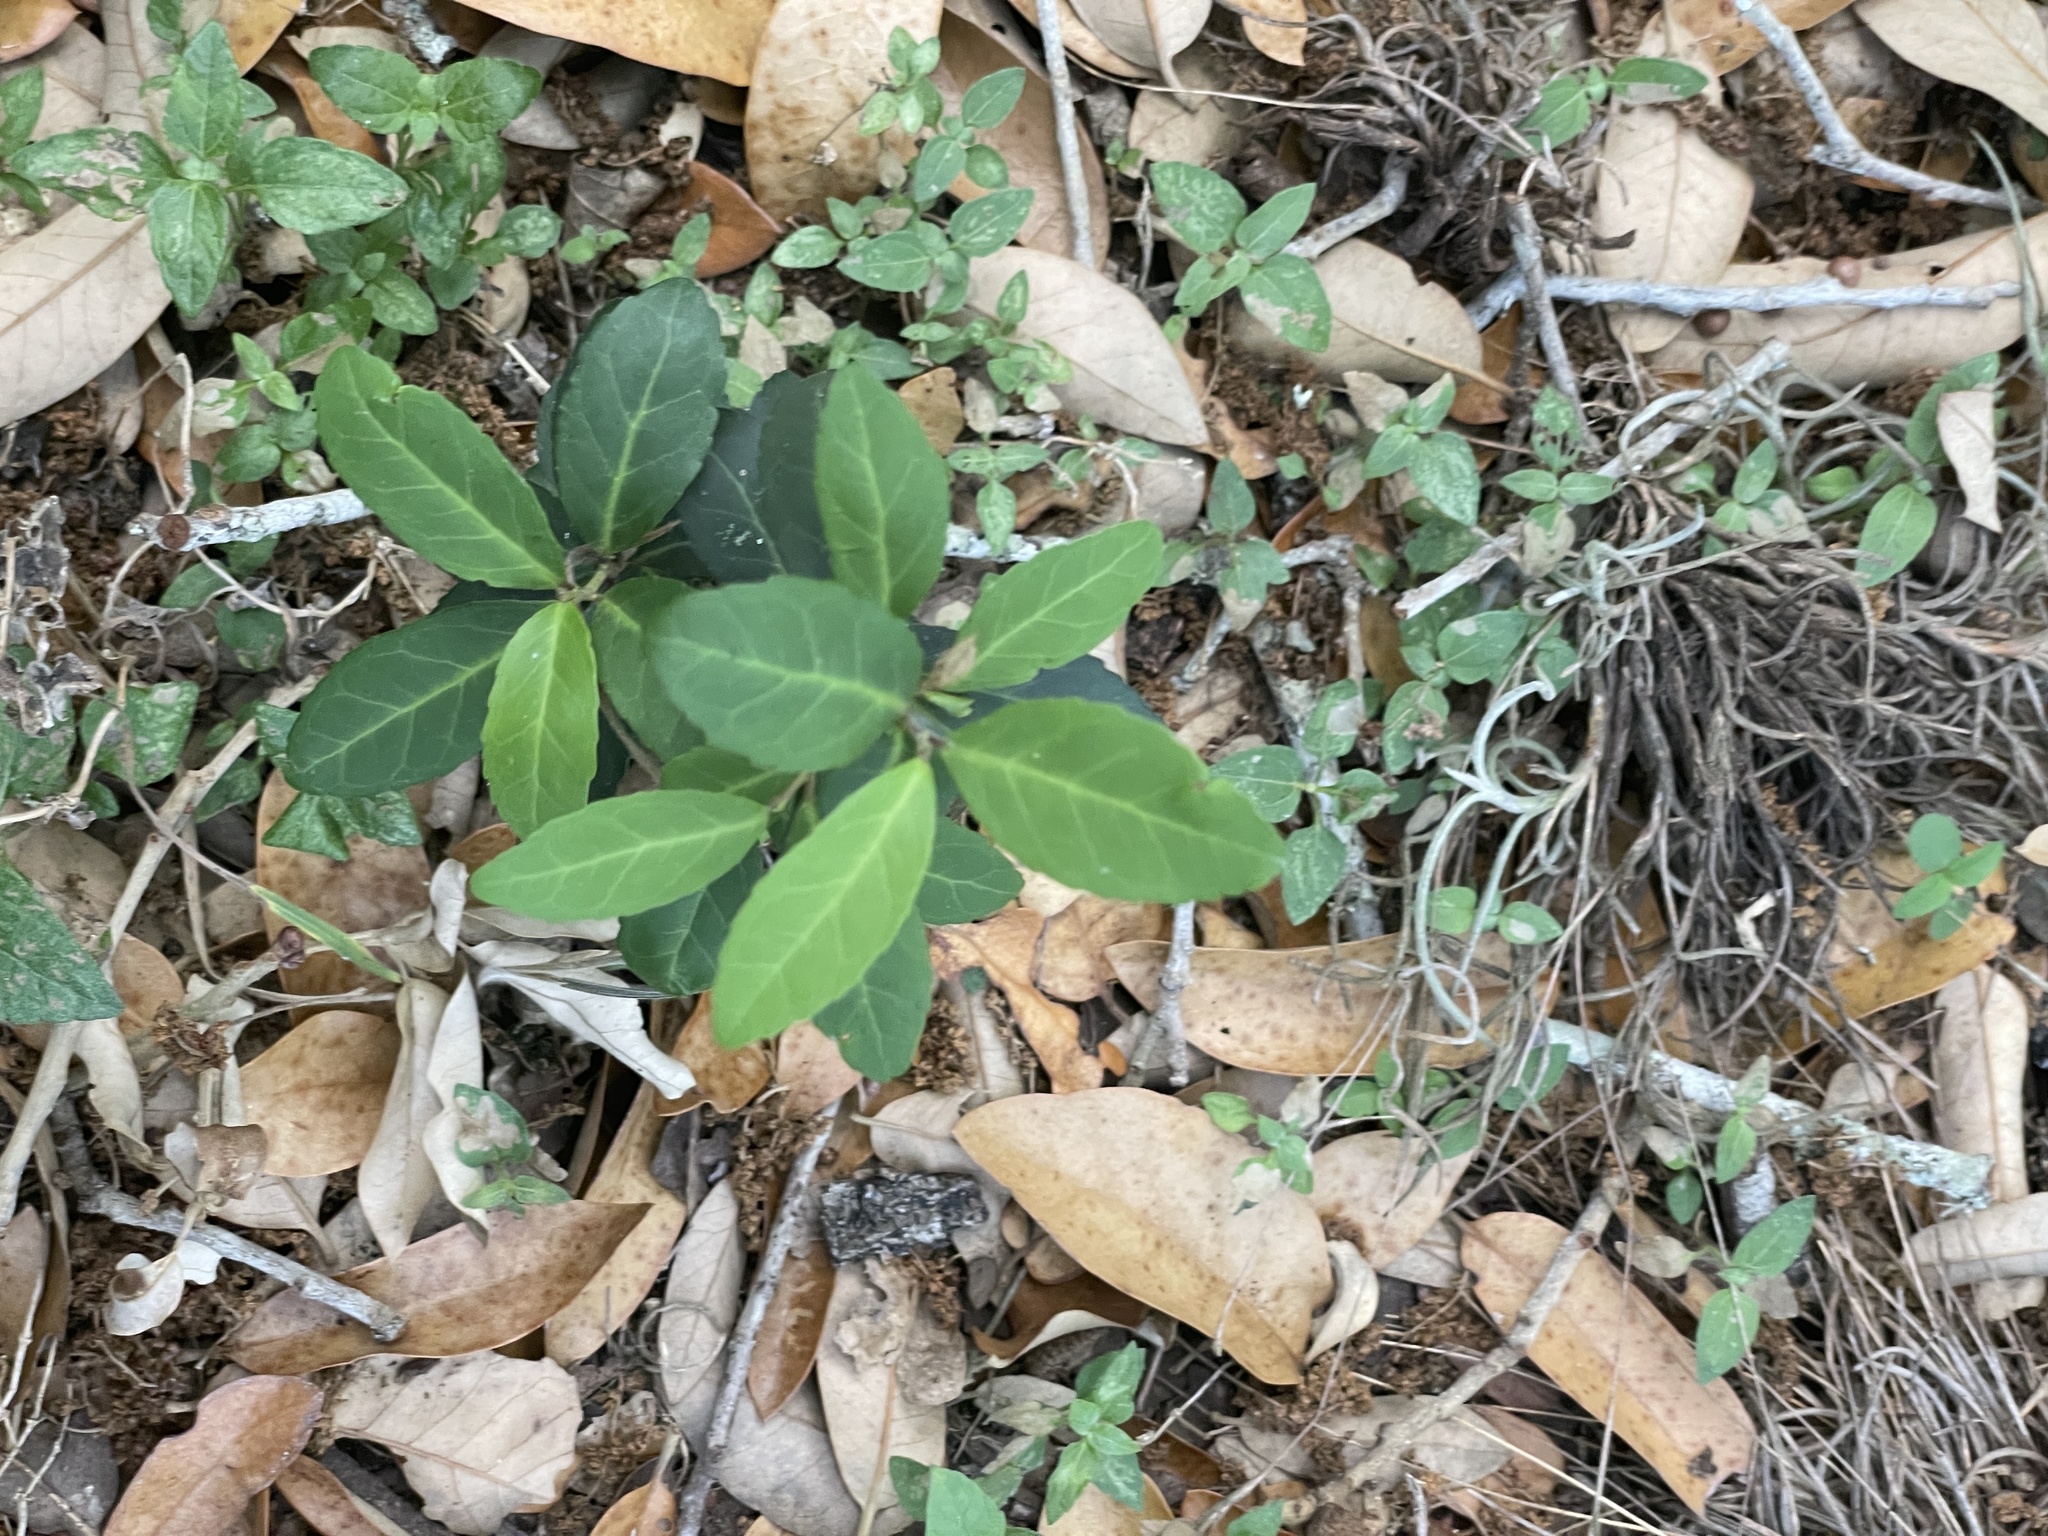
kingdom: Plantae
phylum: Tracheophyta
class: Magnoliopsida
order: Aquifoliales
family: Aquifoliaceae
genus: Ilex
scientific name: Ilex vomitoria
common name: Yaupon holly
